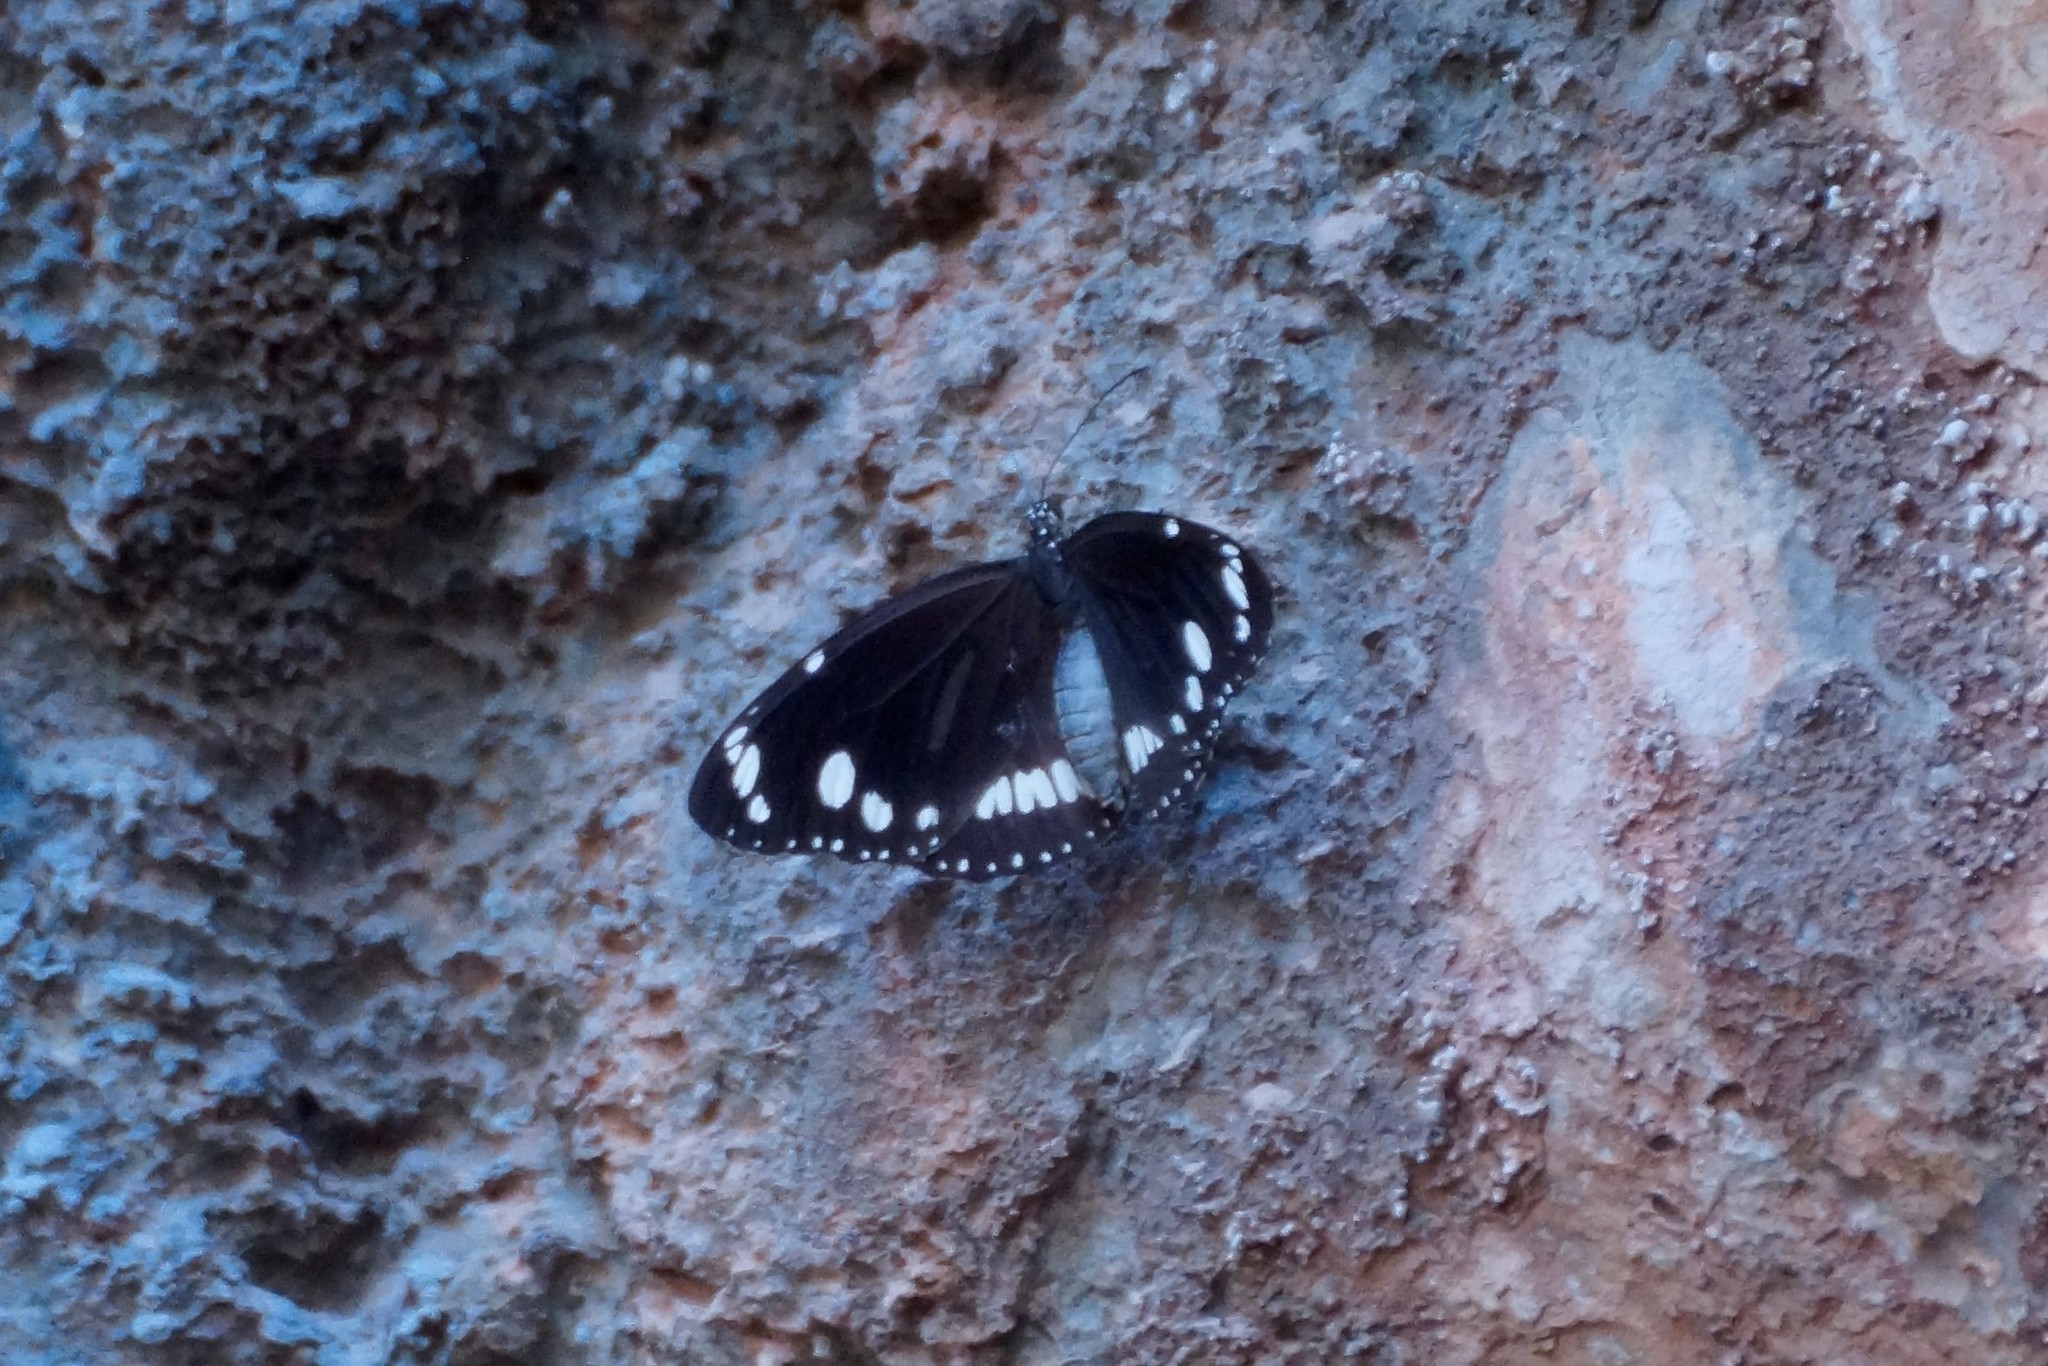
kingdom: Animalia
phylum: Arthropoda
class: Insecta
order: Lepidoptera
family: Nymphalidae
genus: Euploea
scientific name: Euploea core
